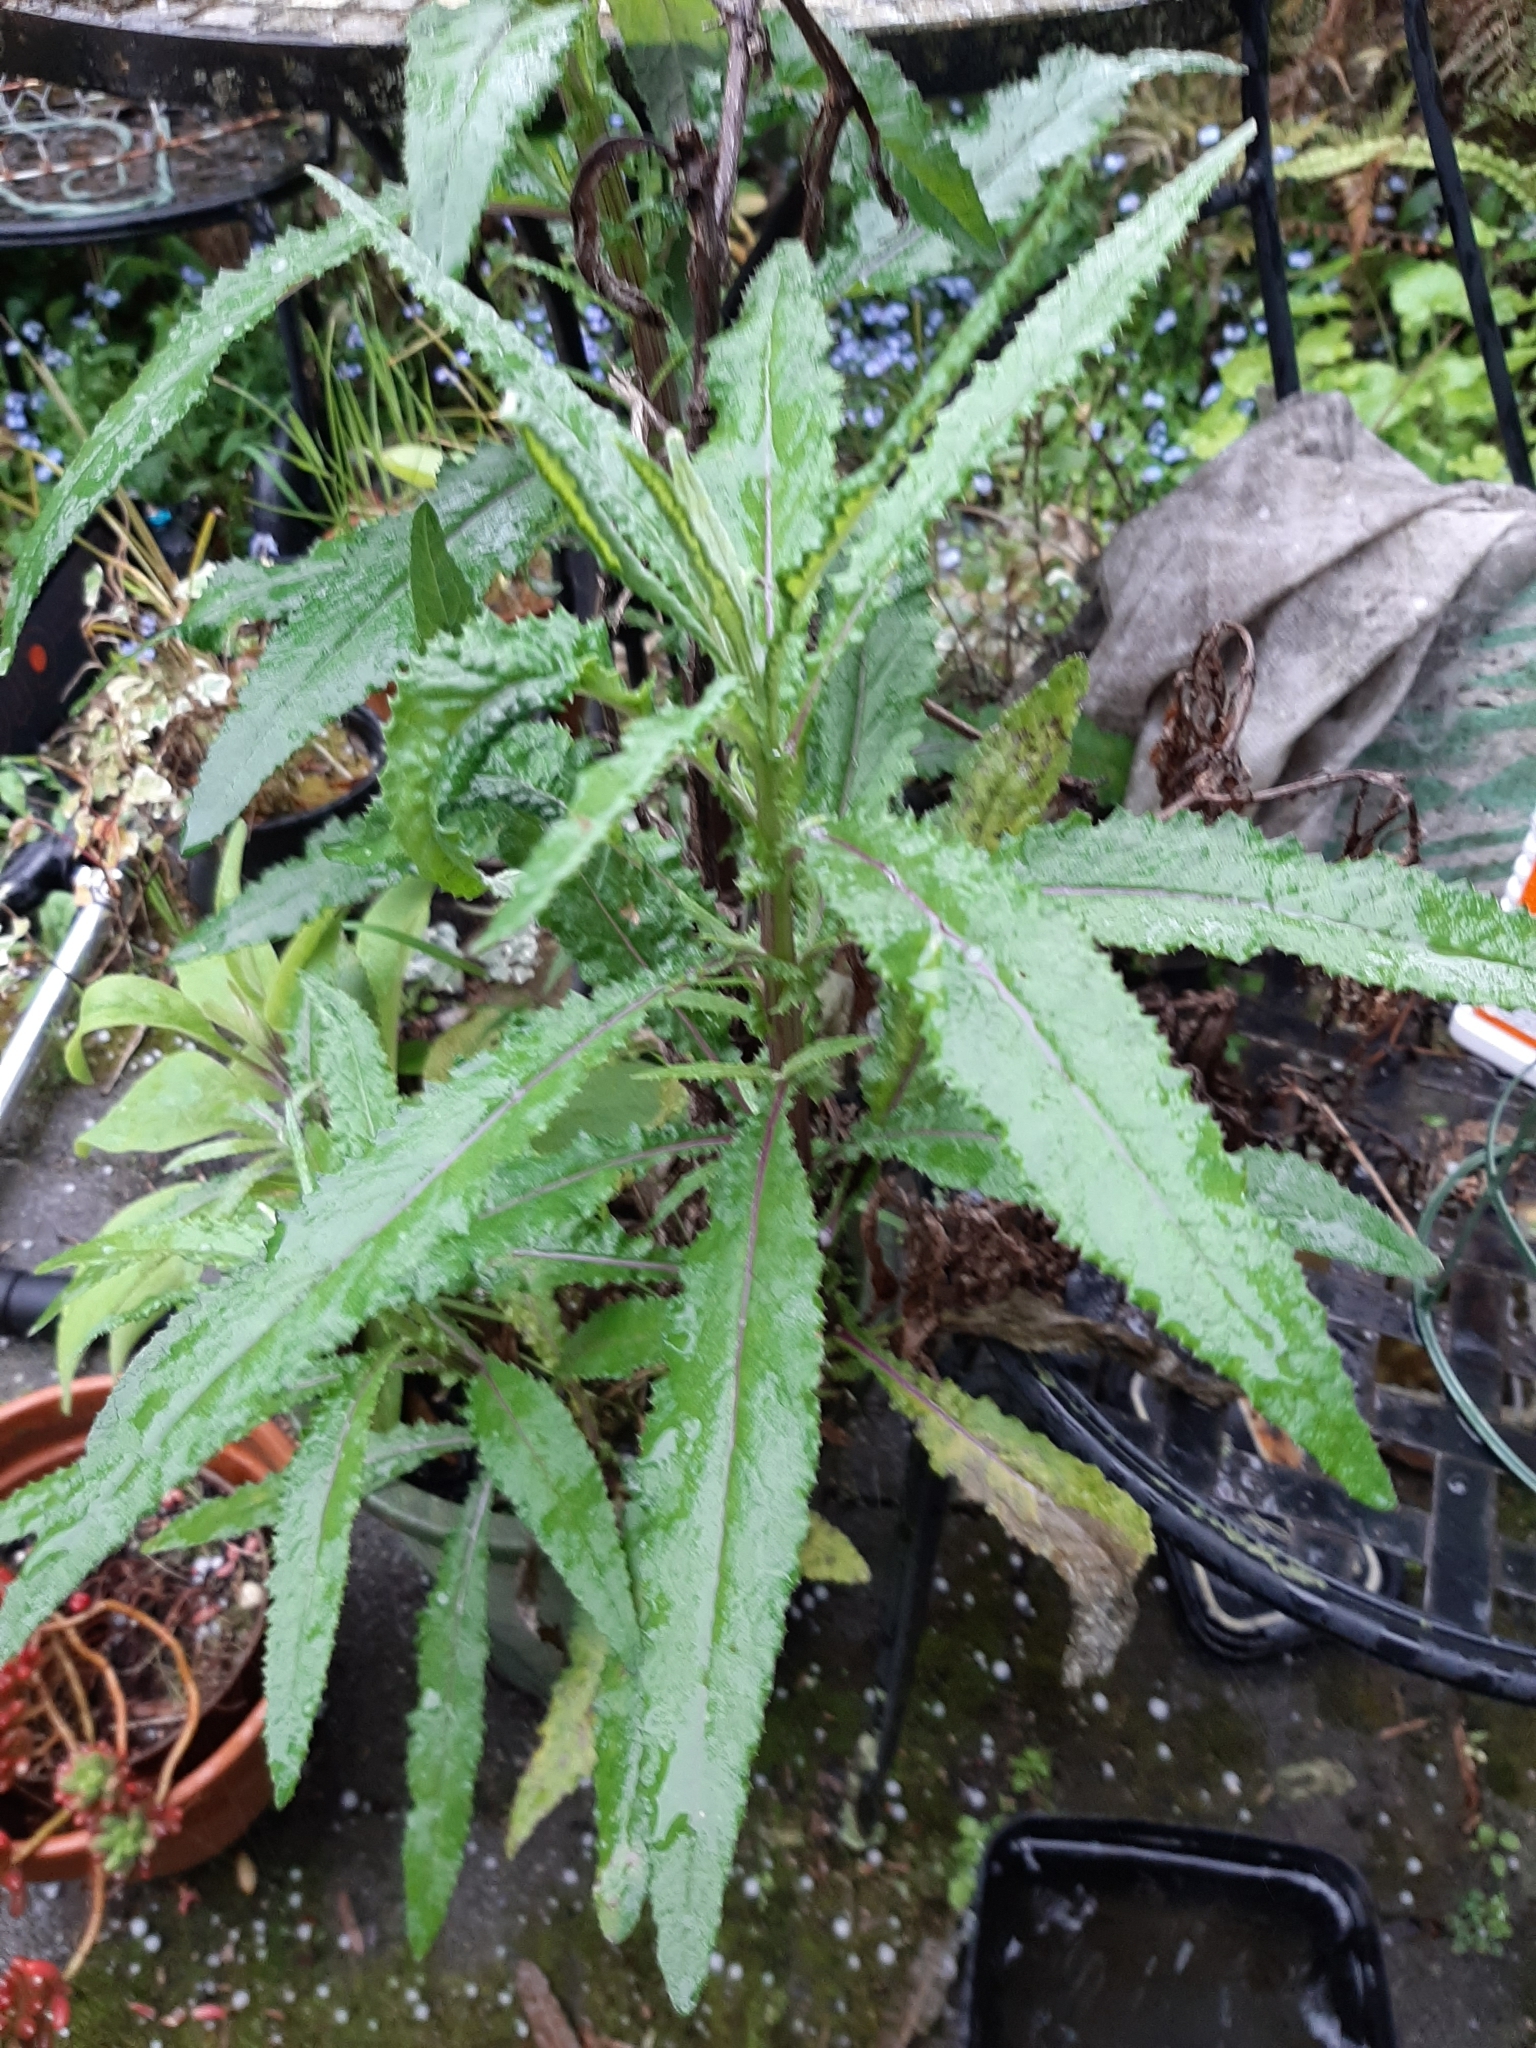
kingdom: Plantae
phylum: Tracheophyta
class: Magnoliopsida
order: Asterales
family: Asteraceae
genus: Senecio
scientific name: Senecio minimus
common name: Toothed fireweed
